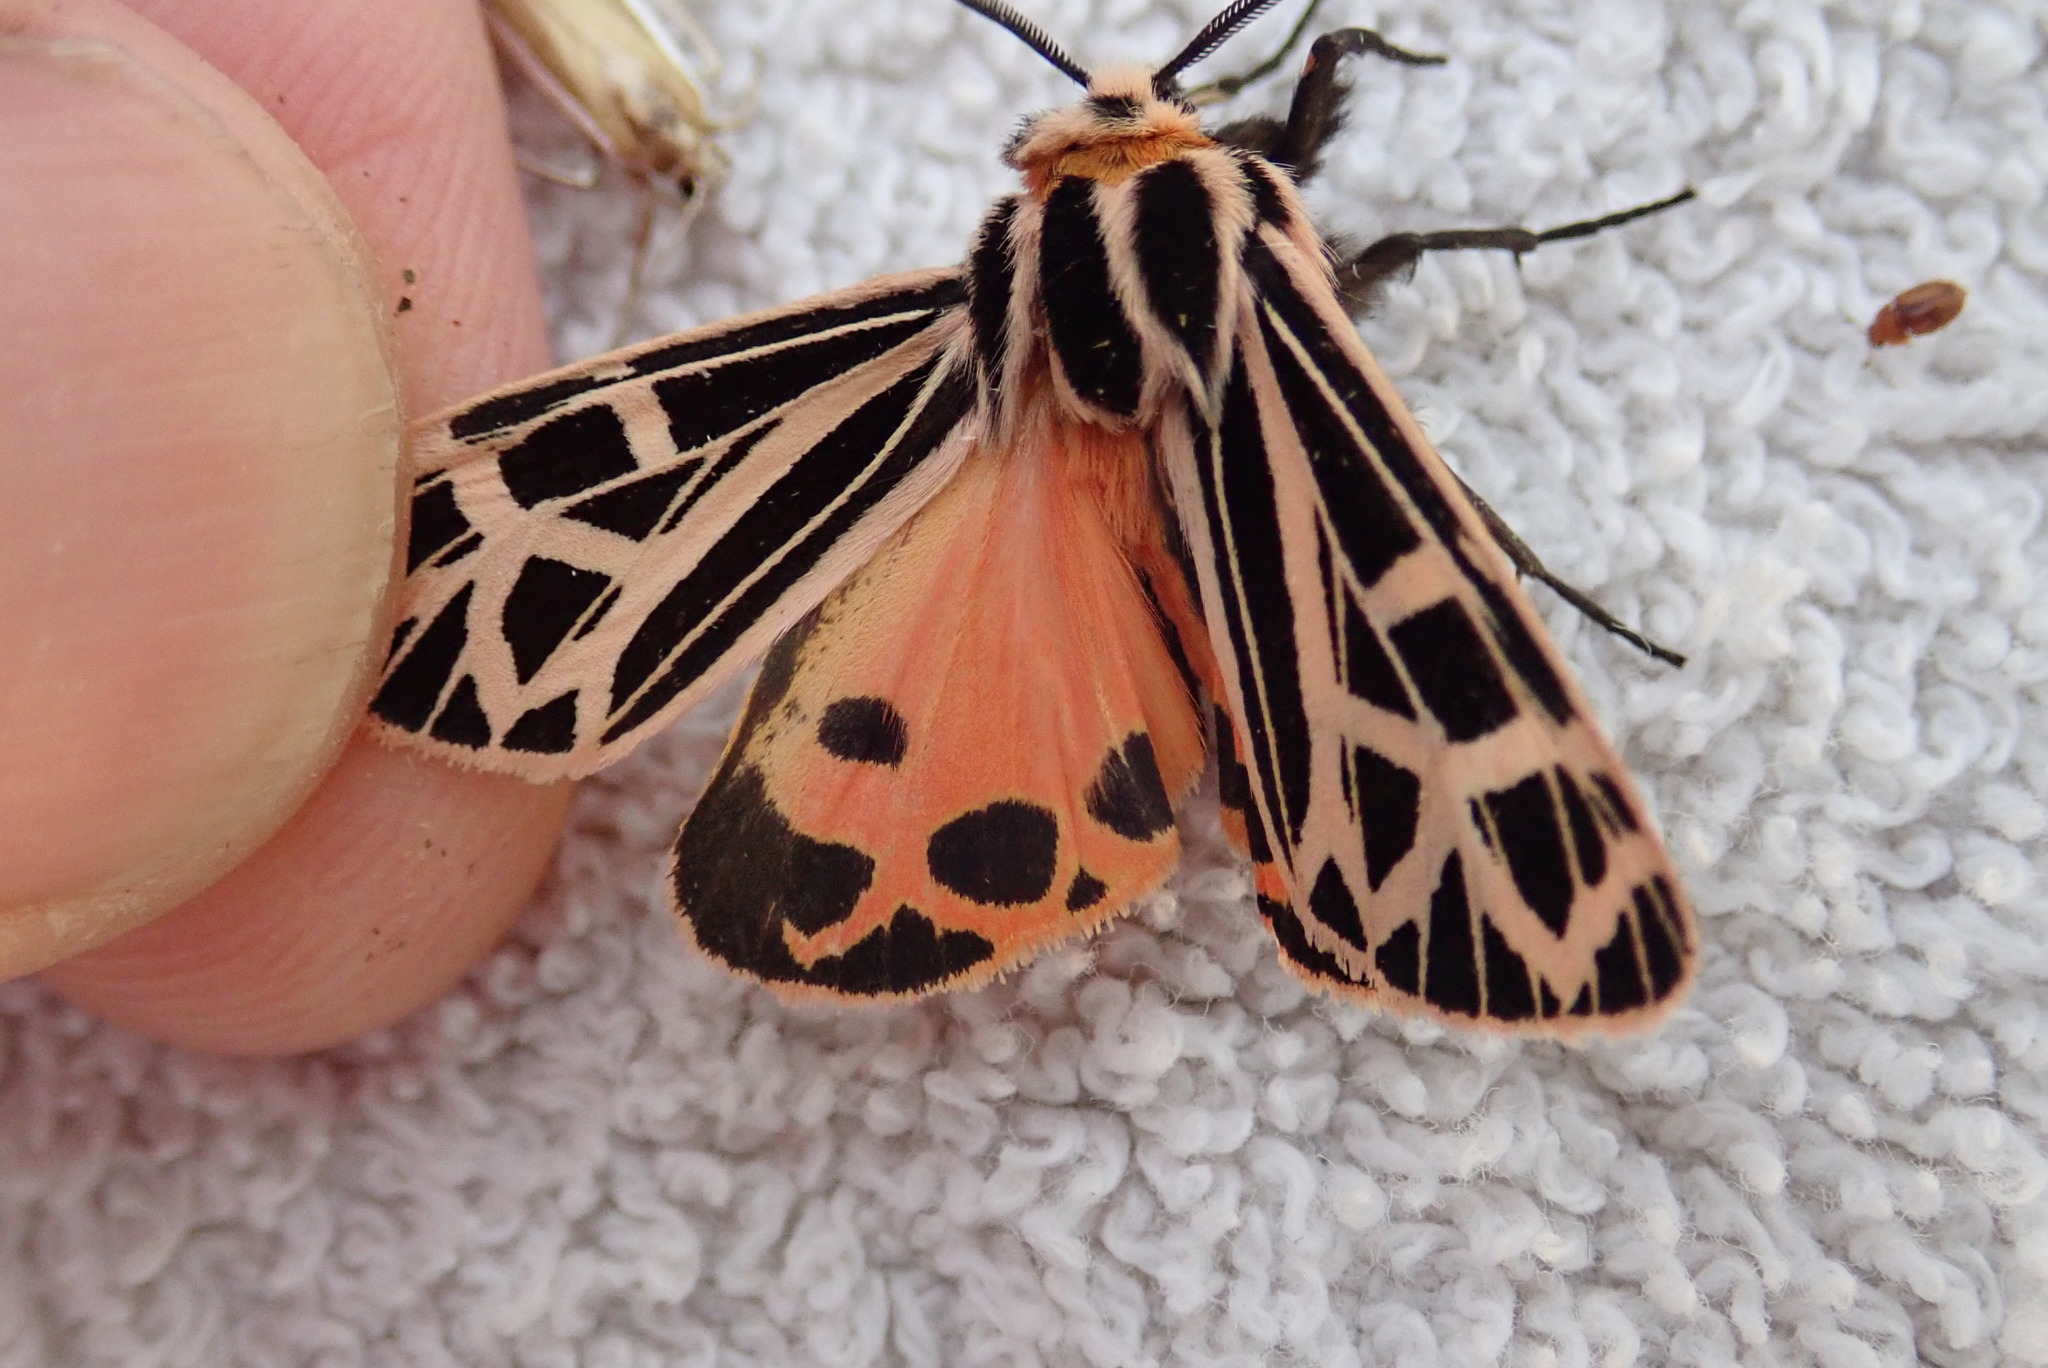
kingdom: Animalia
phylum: Arthropoda
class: Insecta
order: Lepidoptera
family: Erebidae
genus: Grammia
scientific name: Grammia parthenice
